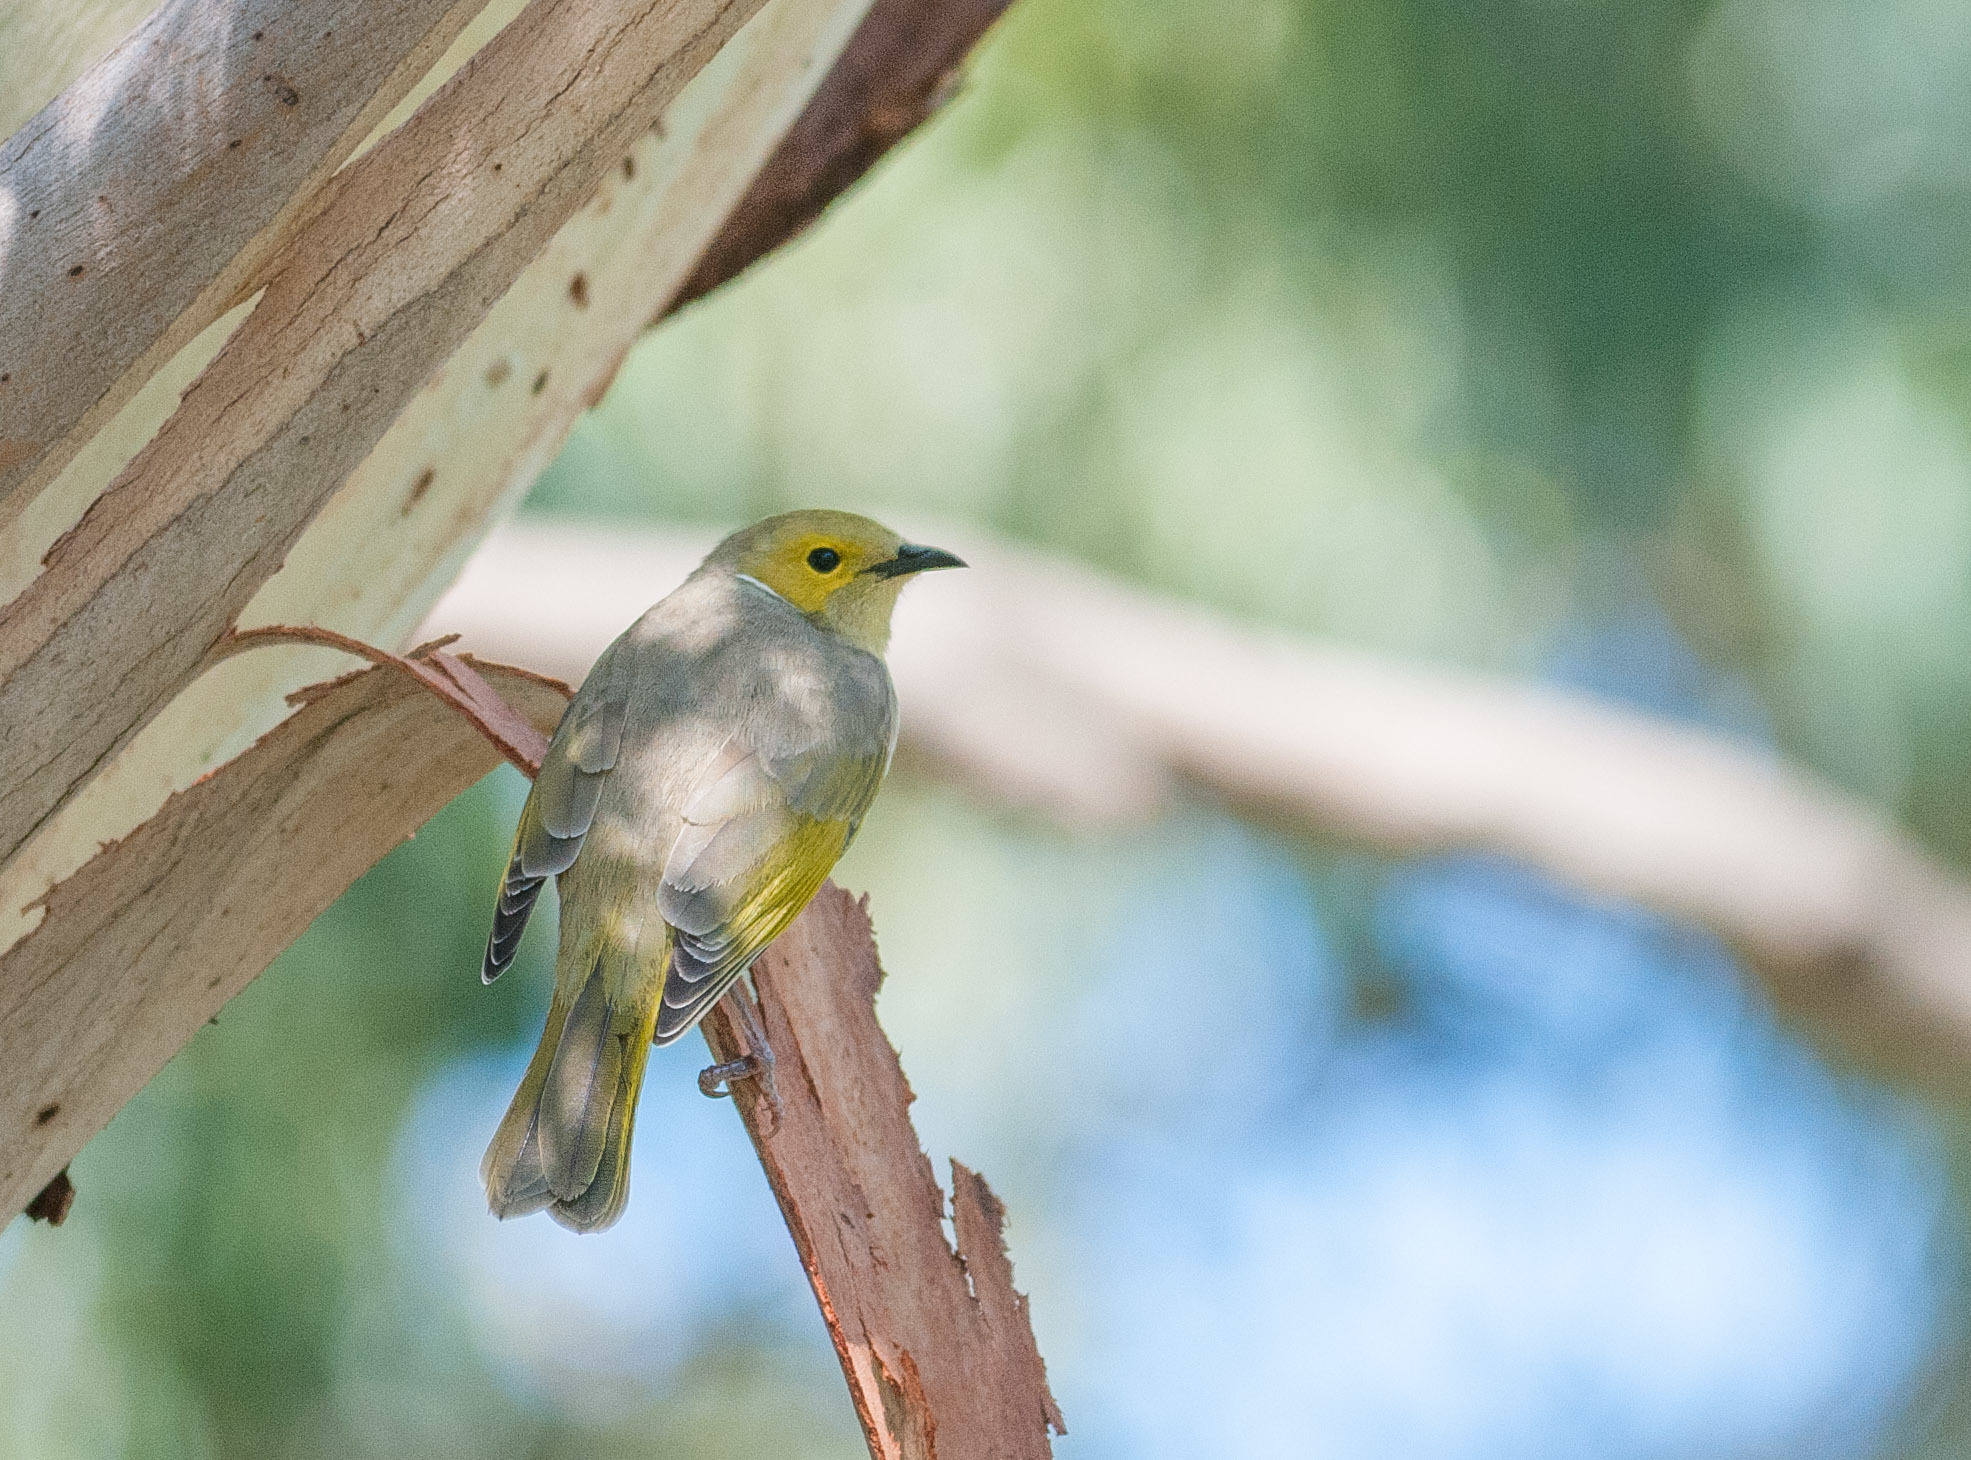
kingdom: Animalia
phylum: Chordata
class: Aves
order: Passeriformes
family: Meliphagidae
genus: Ptilotula
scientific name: Ptilotula penicillata
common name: White-plumed honeyeater
